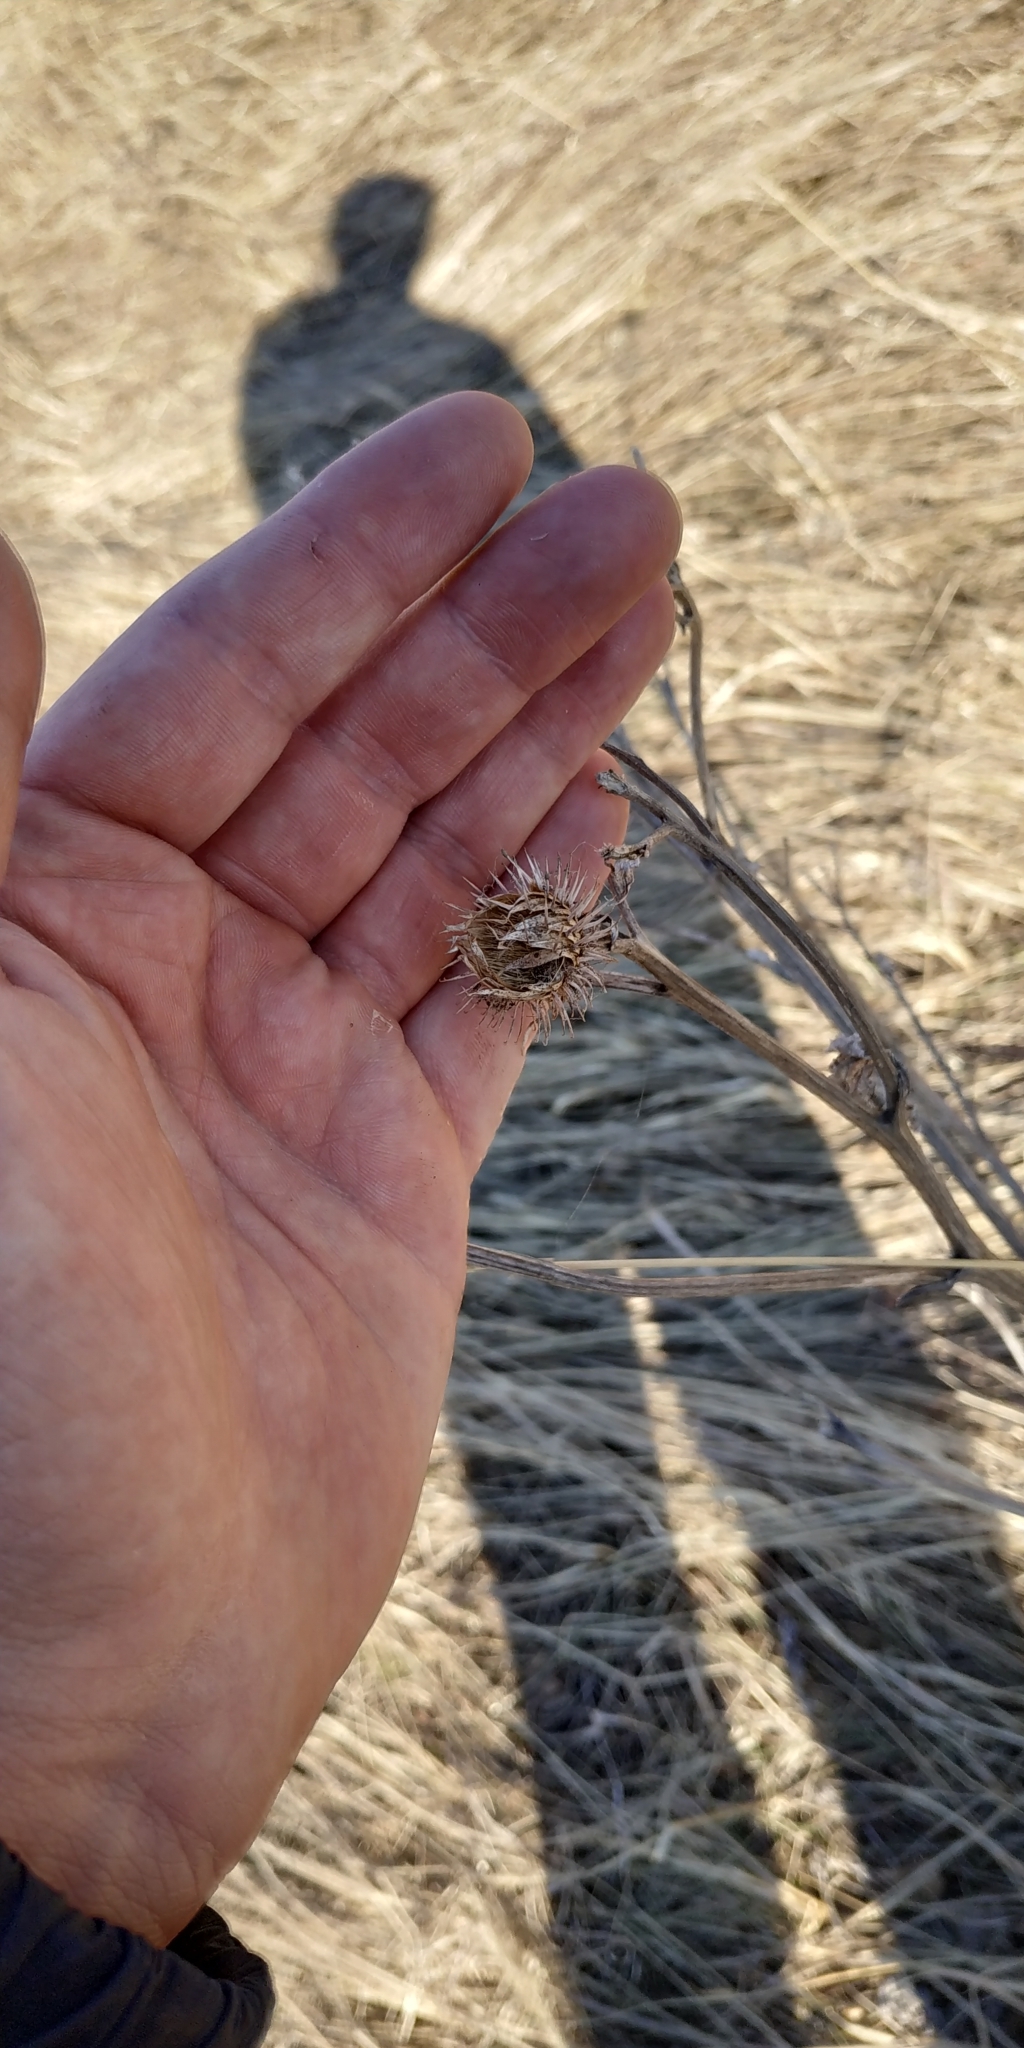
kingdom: Plantae
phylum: Tracheophyta
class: Magnoliopsida
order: Asterales
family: Asteraceae
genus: Arctium
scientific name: Arctium tomentosum
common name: Woolly burdock
